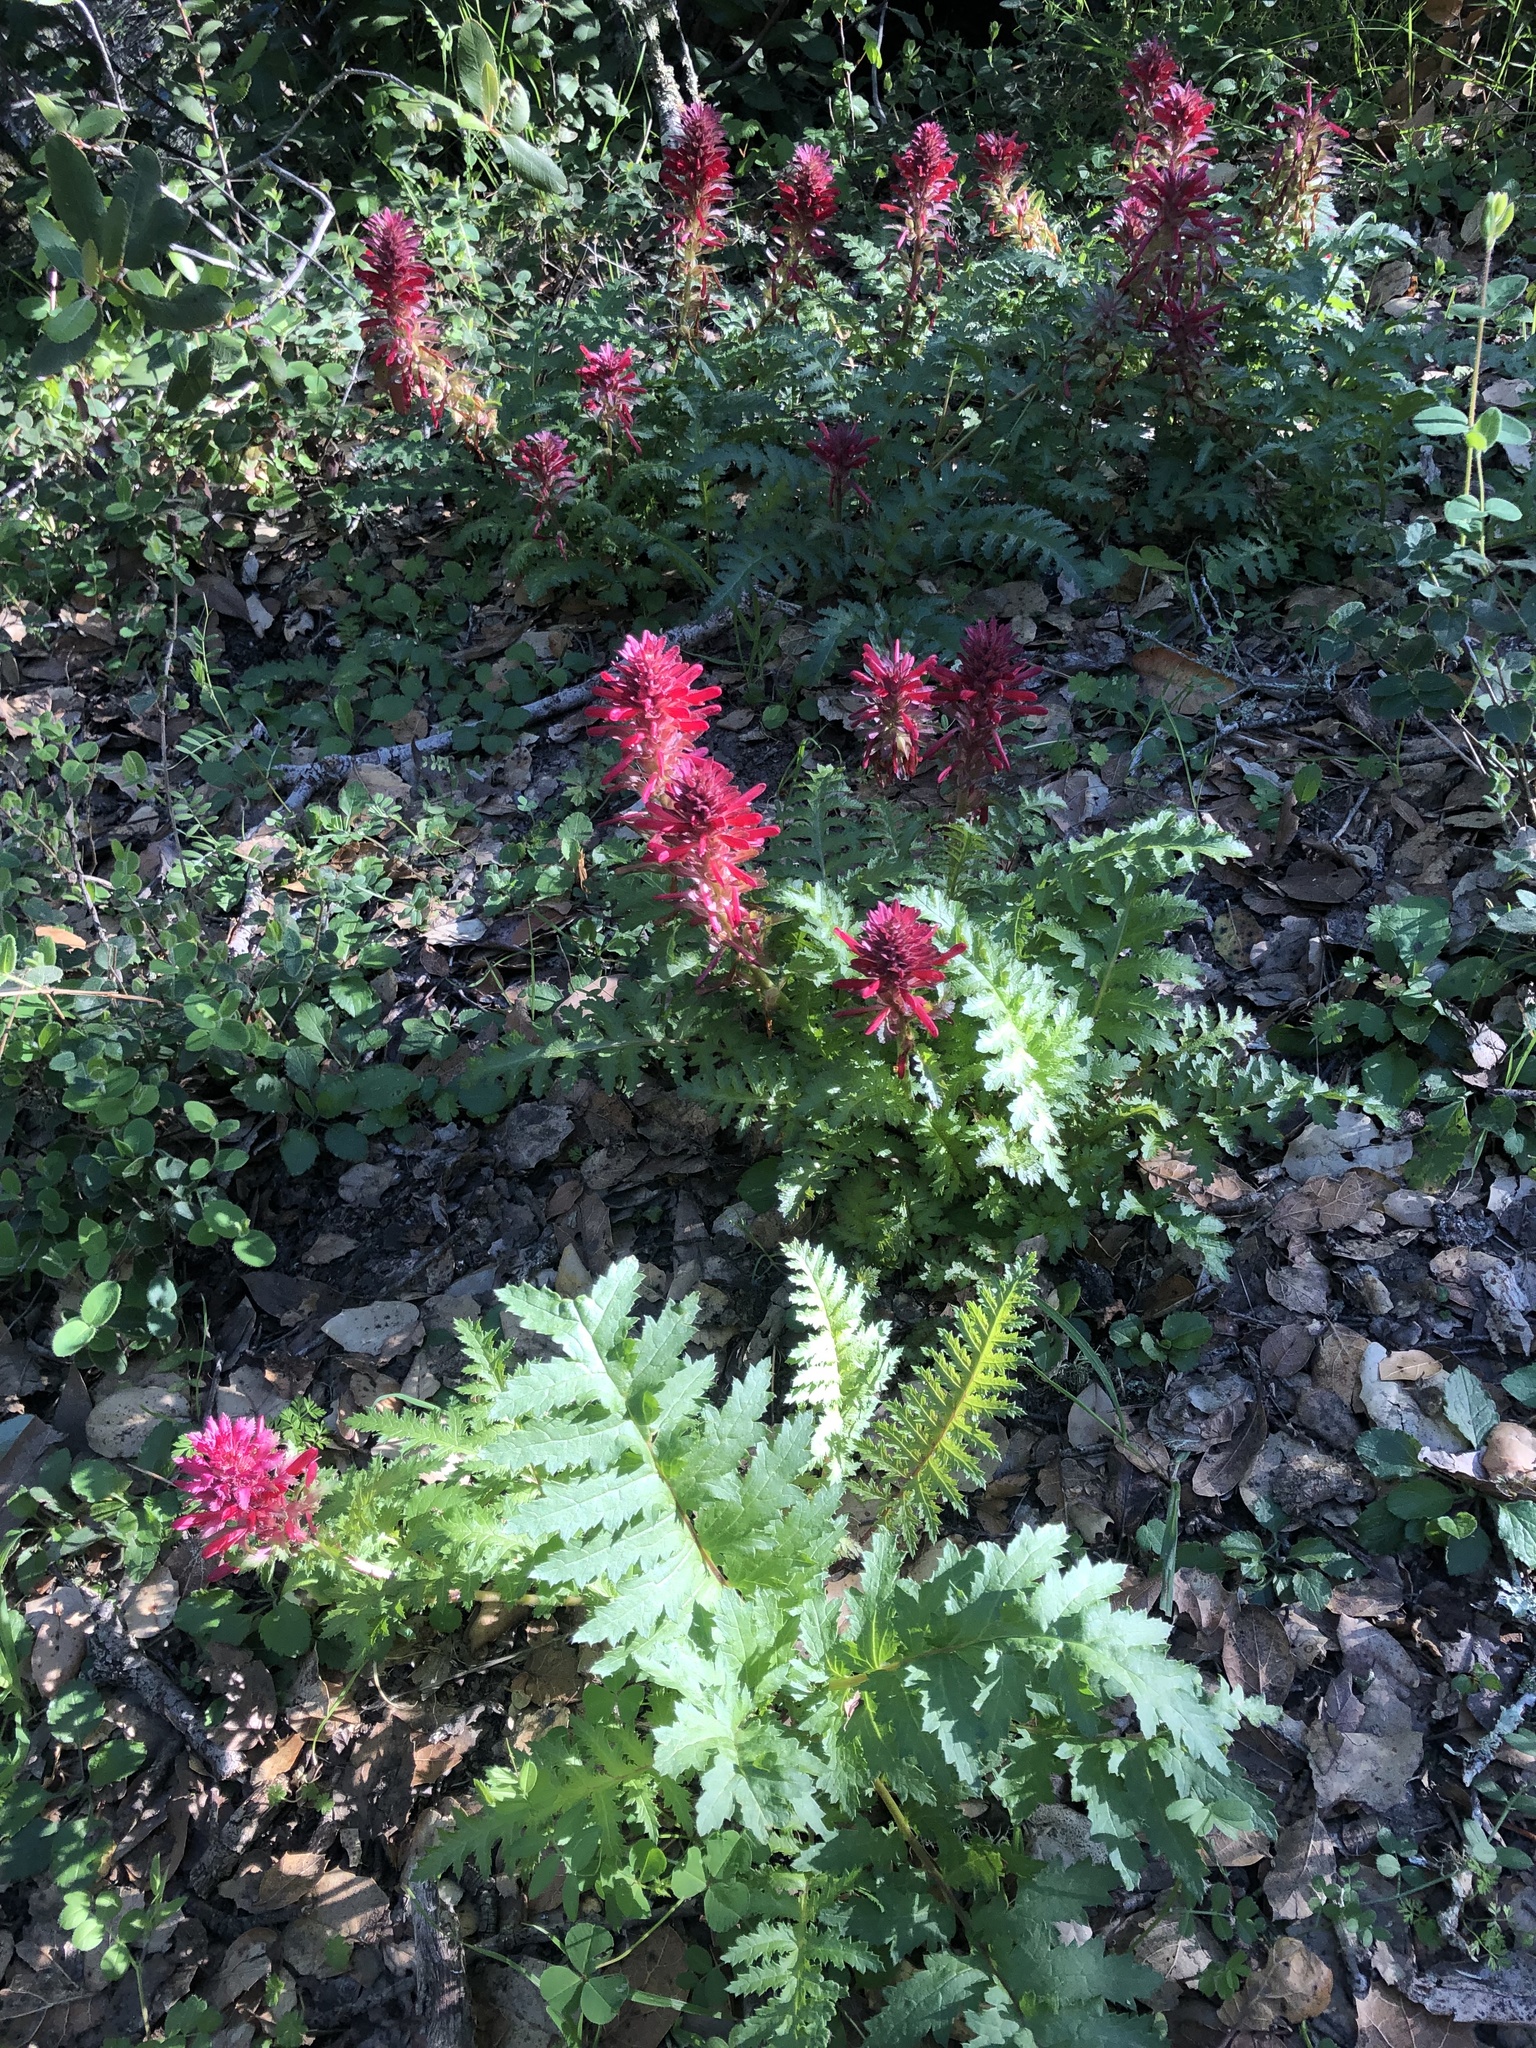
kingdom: Plantae
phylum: Tracheophyta
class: Magnoliopsida
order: Lamiales
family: Orobanchaceae
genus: Pedicularis
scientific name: Pedicularis densiflora
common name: Indian warrior
